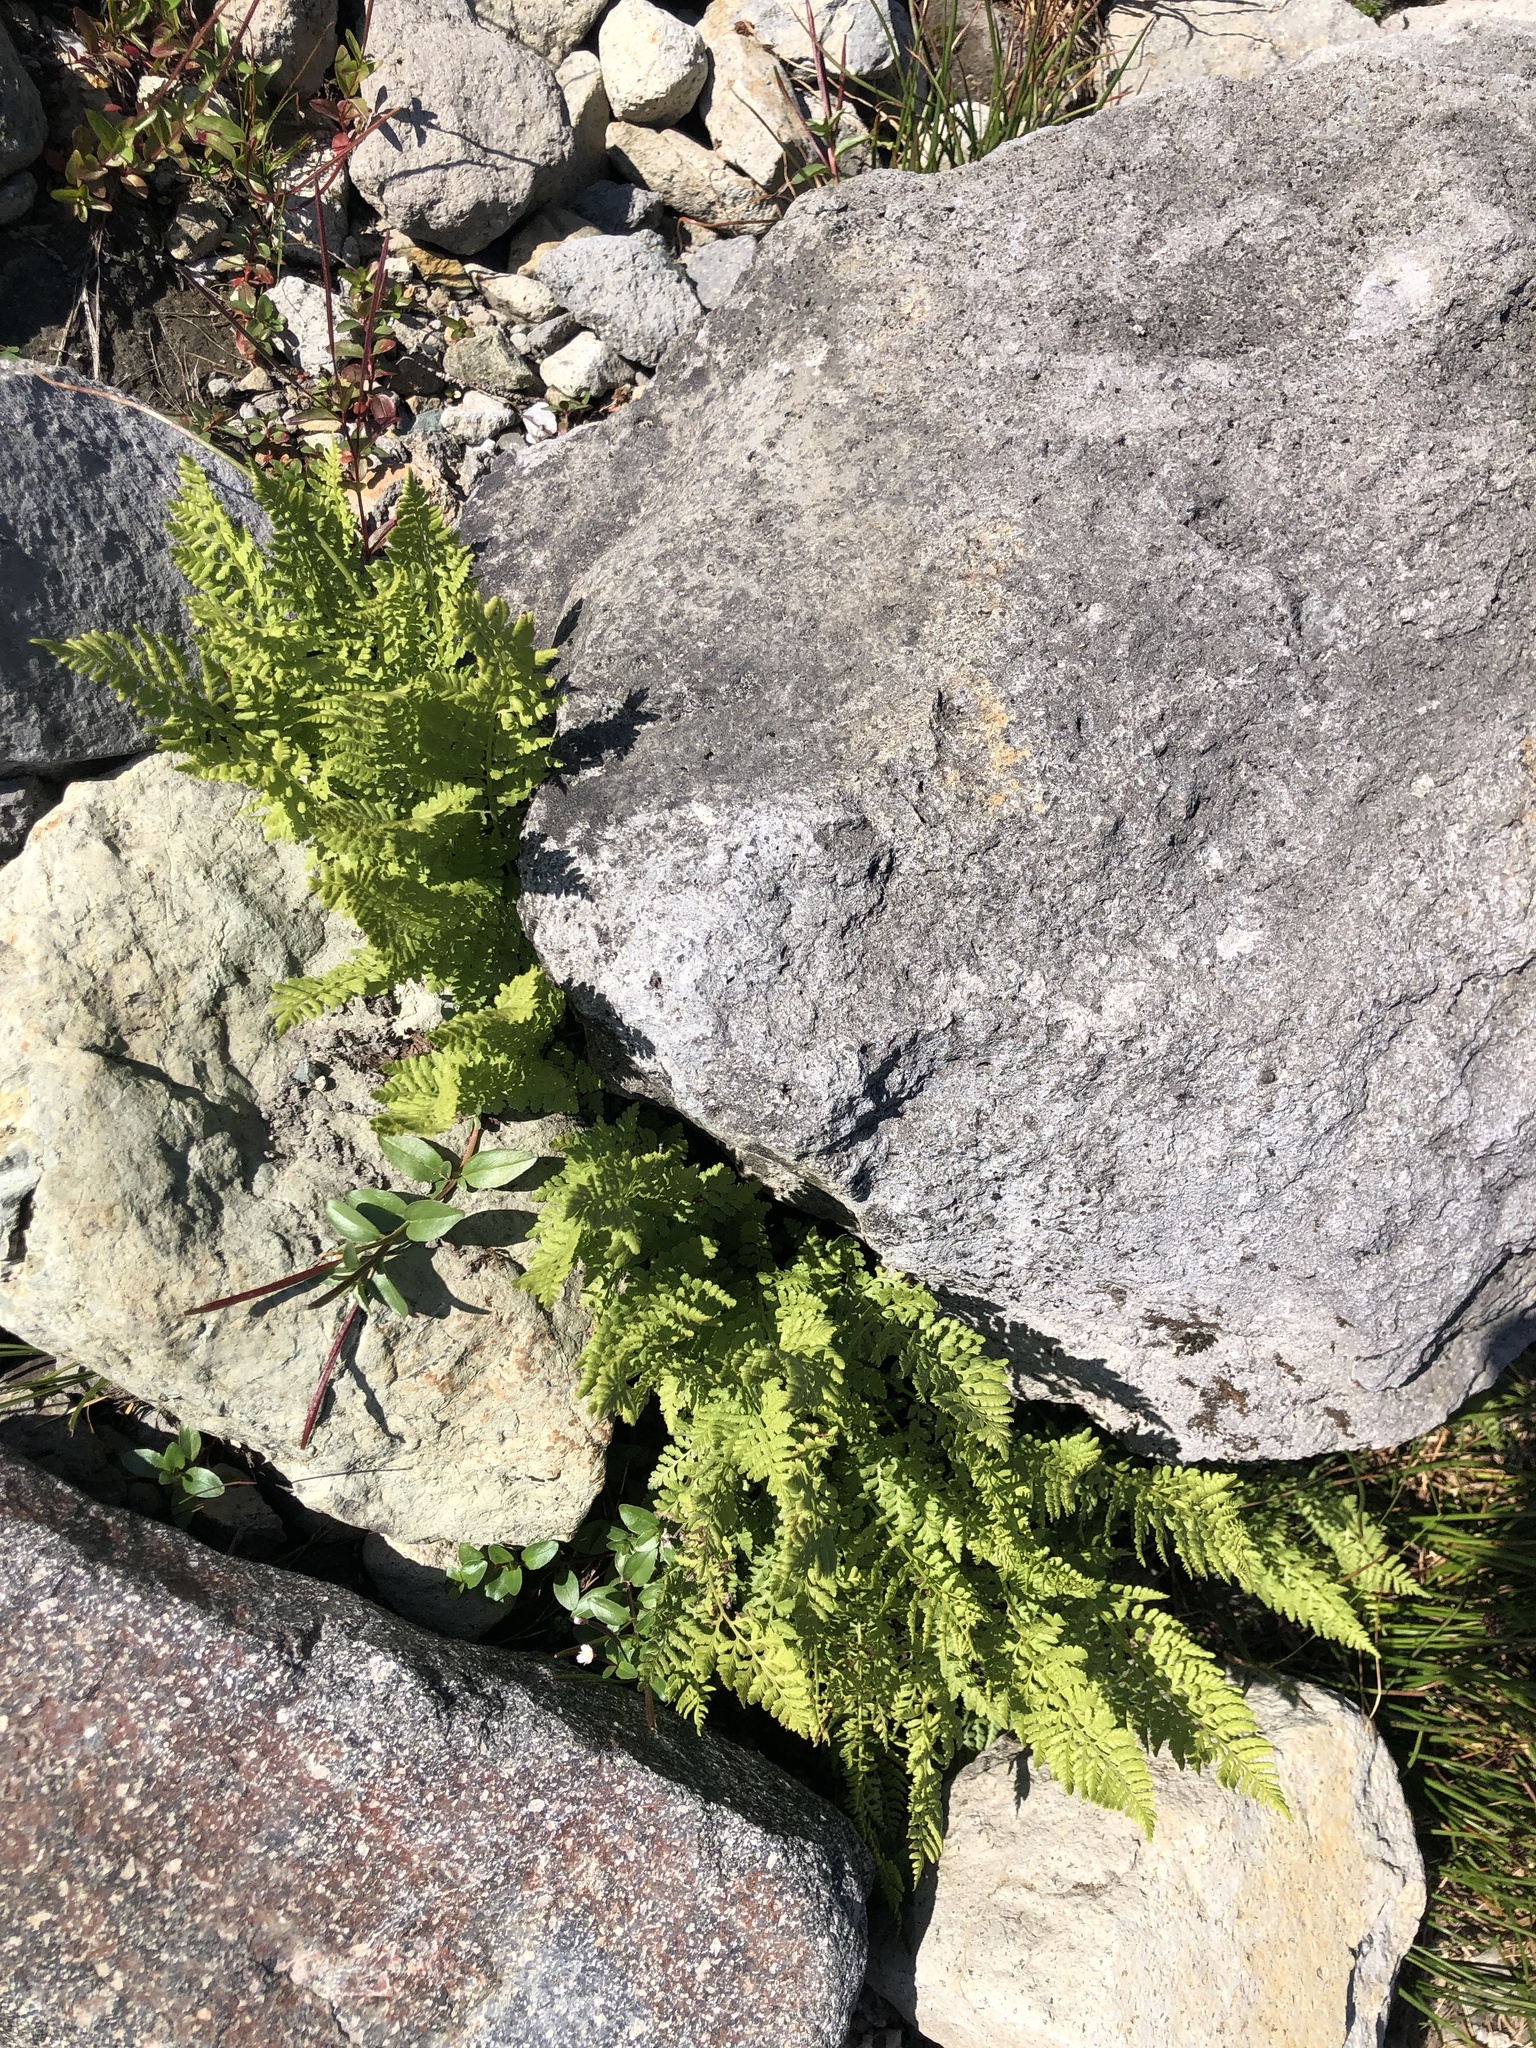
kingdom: Plantae
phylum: Tracheophyta
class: Polypodiopsida
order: Polypodiales
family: Athyriaceae
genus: Athyrium
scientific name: Athyrium americanum
